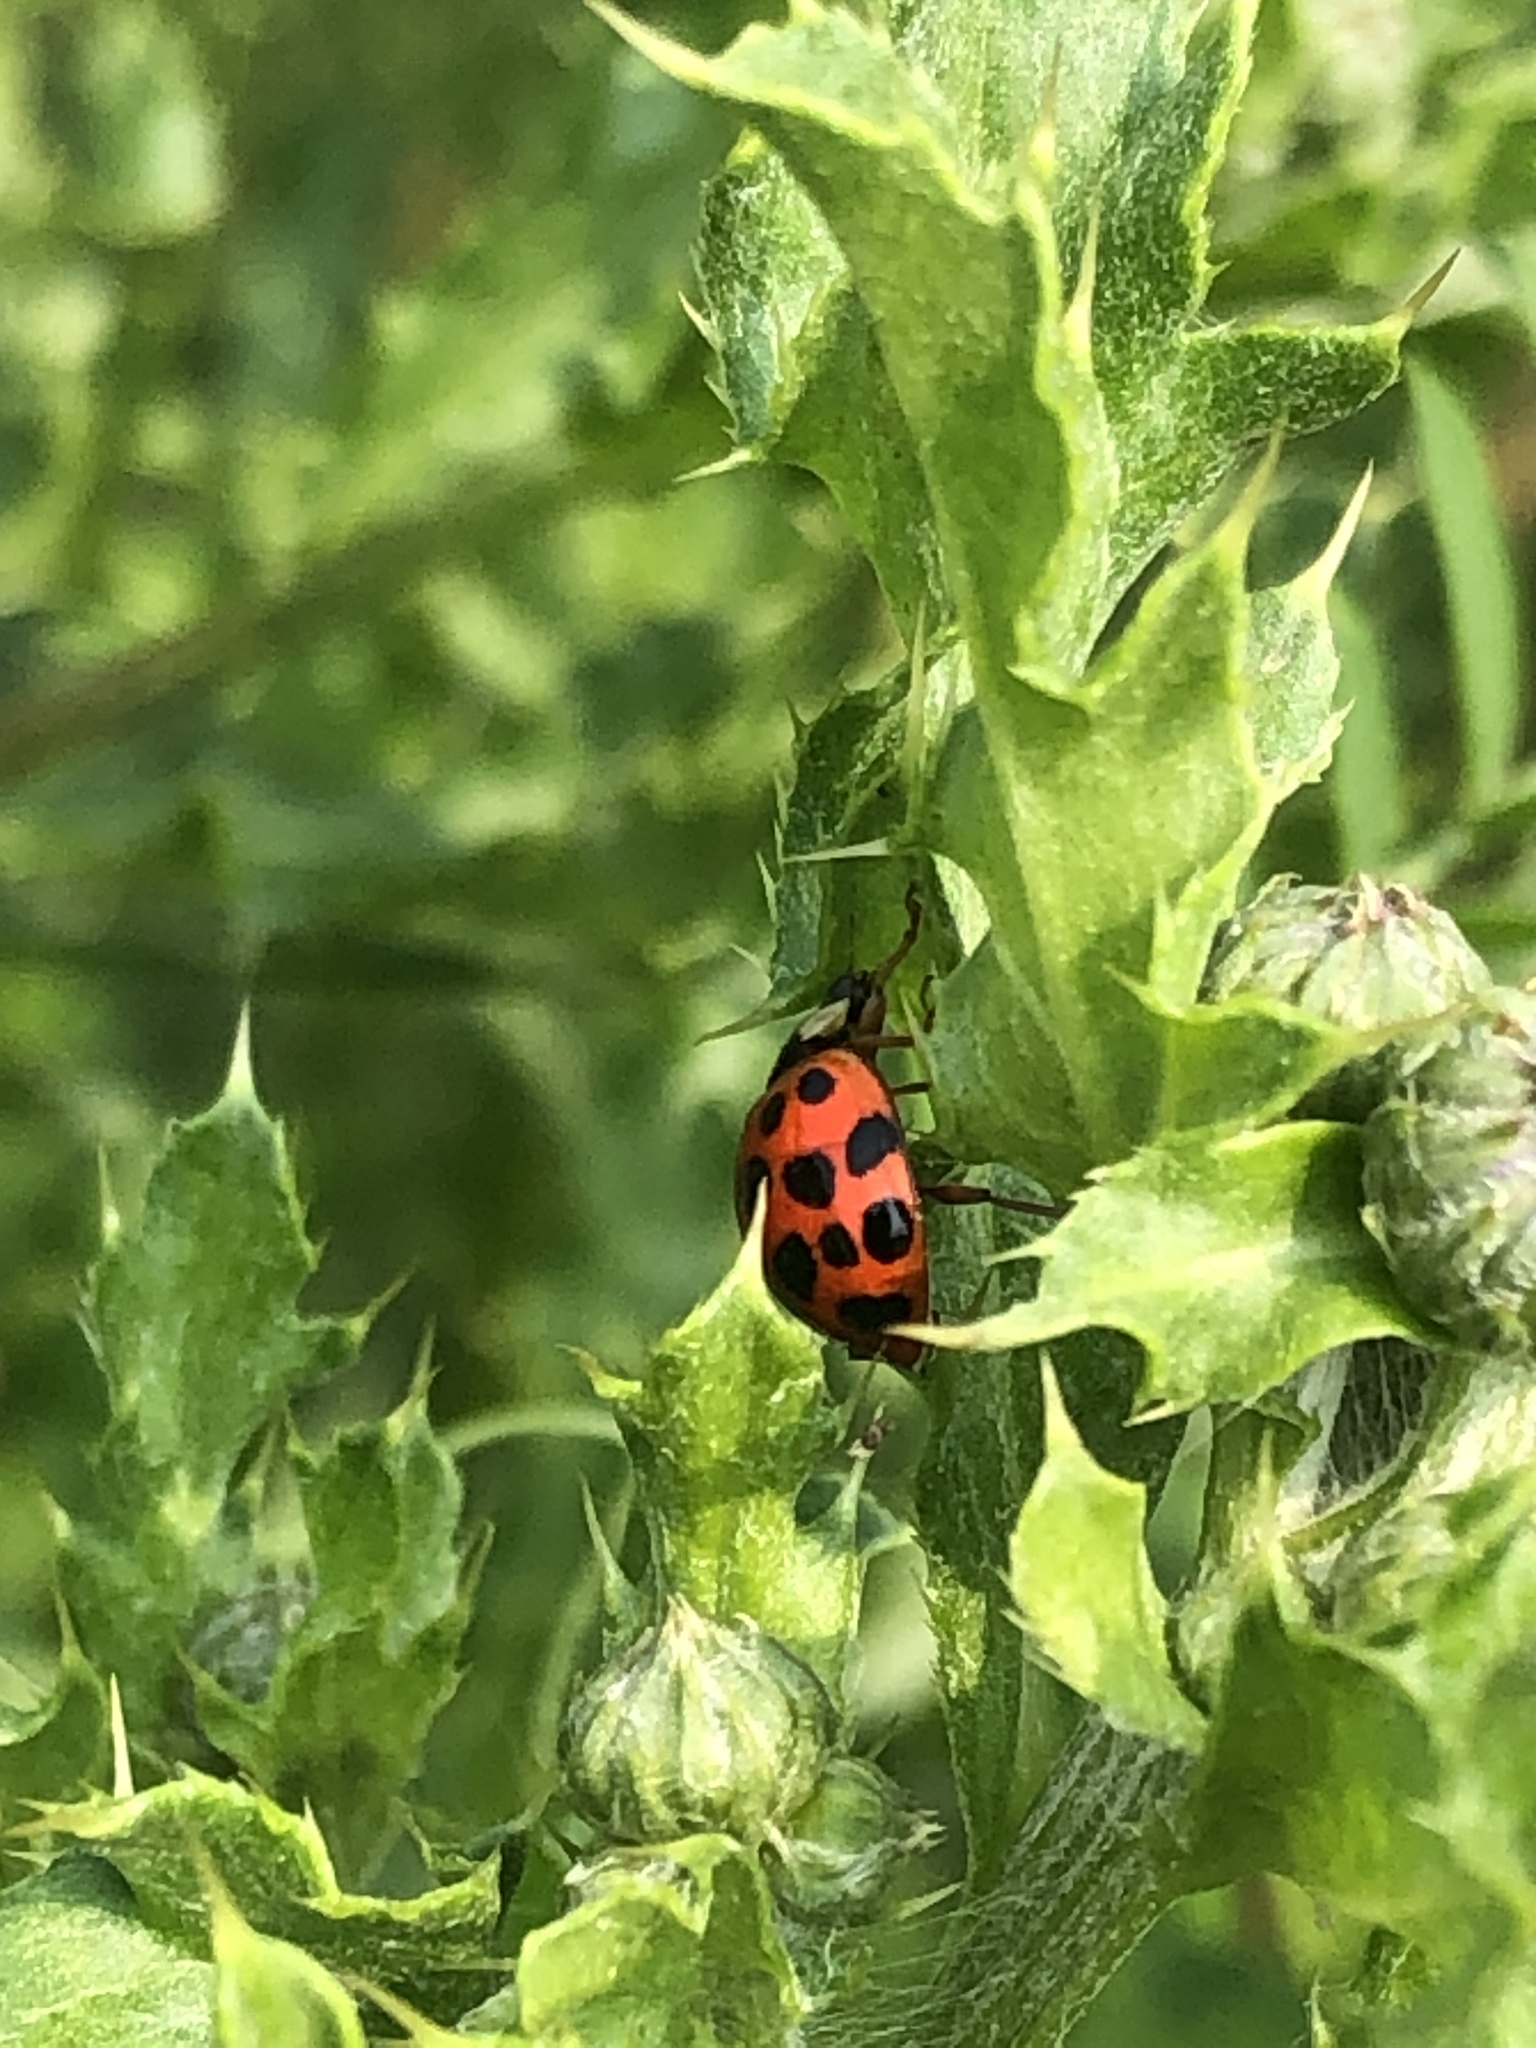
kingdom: Animalia
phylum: Arthropoda
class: Insecta
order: Coleoptera
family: Coccinellidae
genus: Harmonia
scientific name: Harmonia axyridis
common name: Harlequin ladybird
